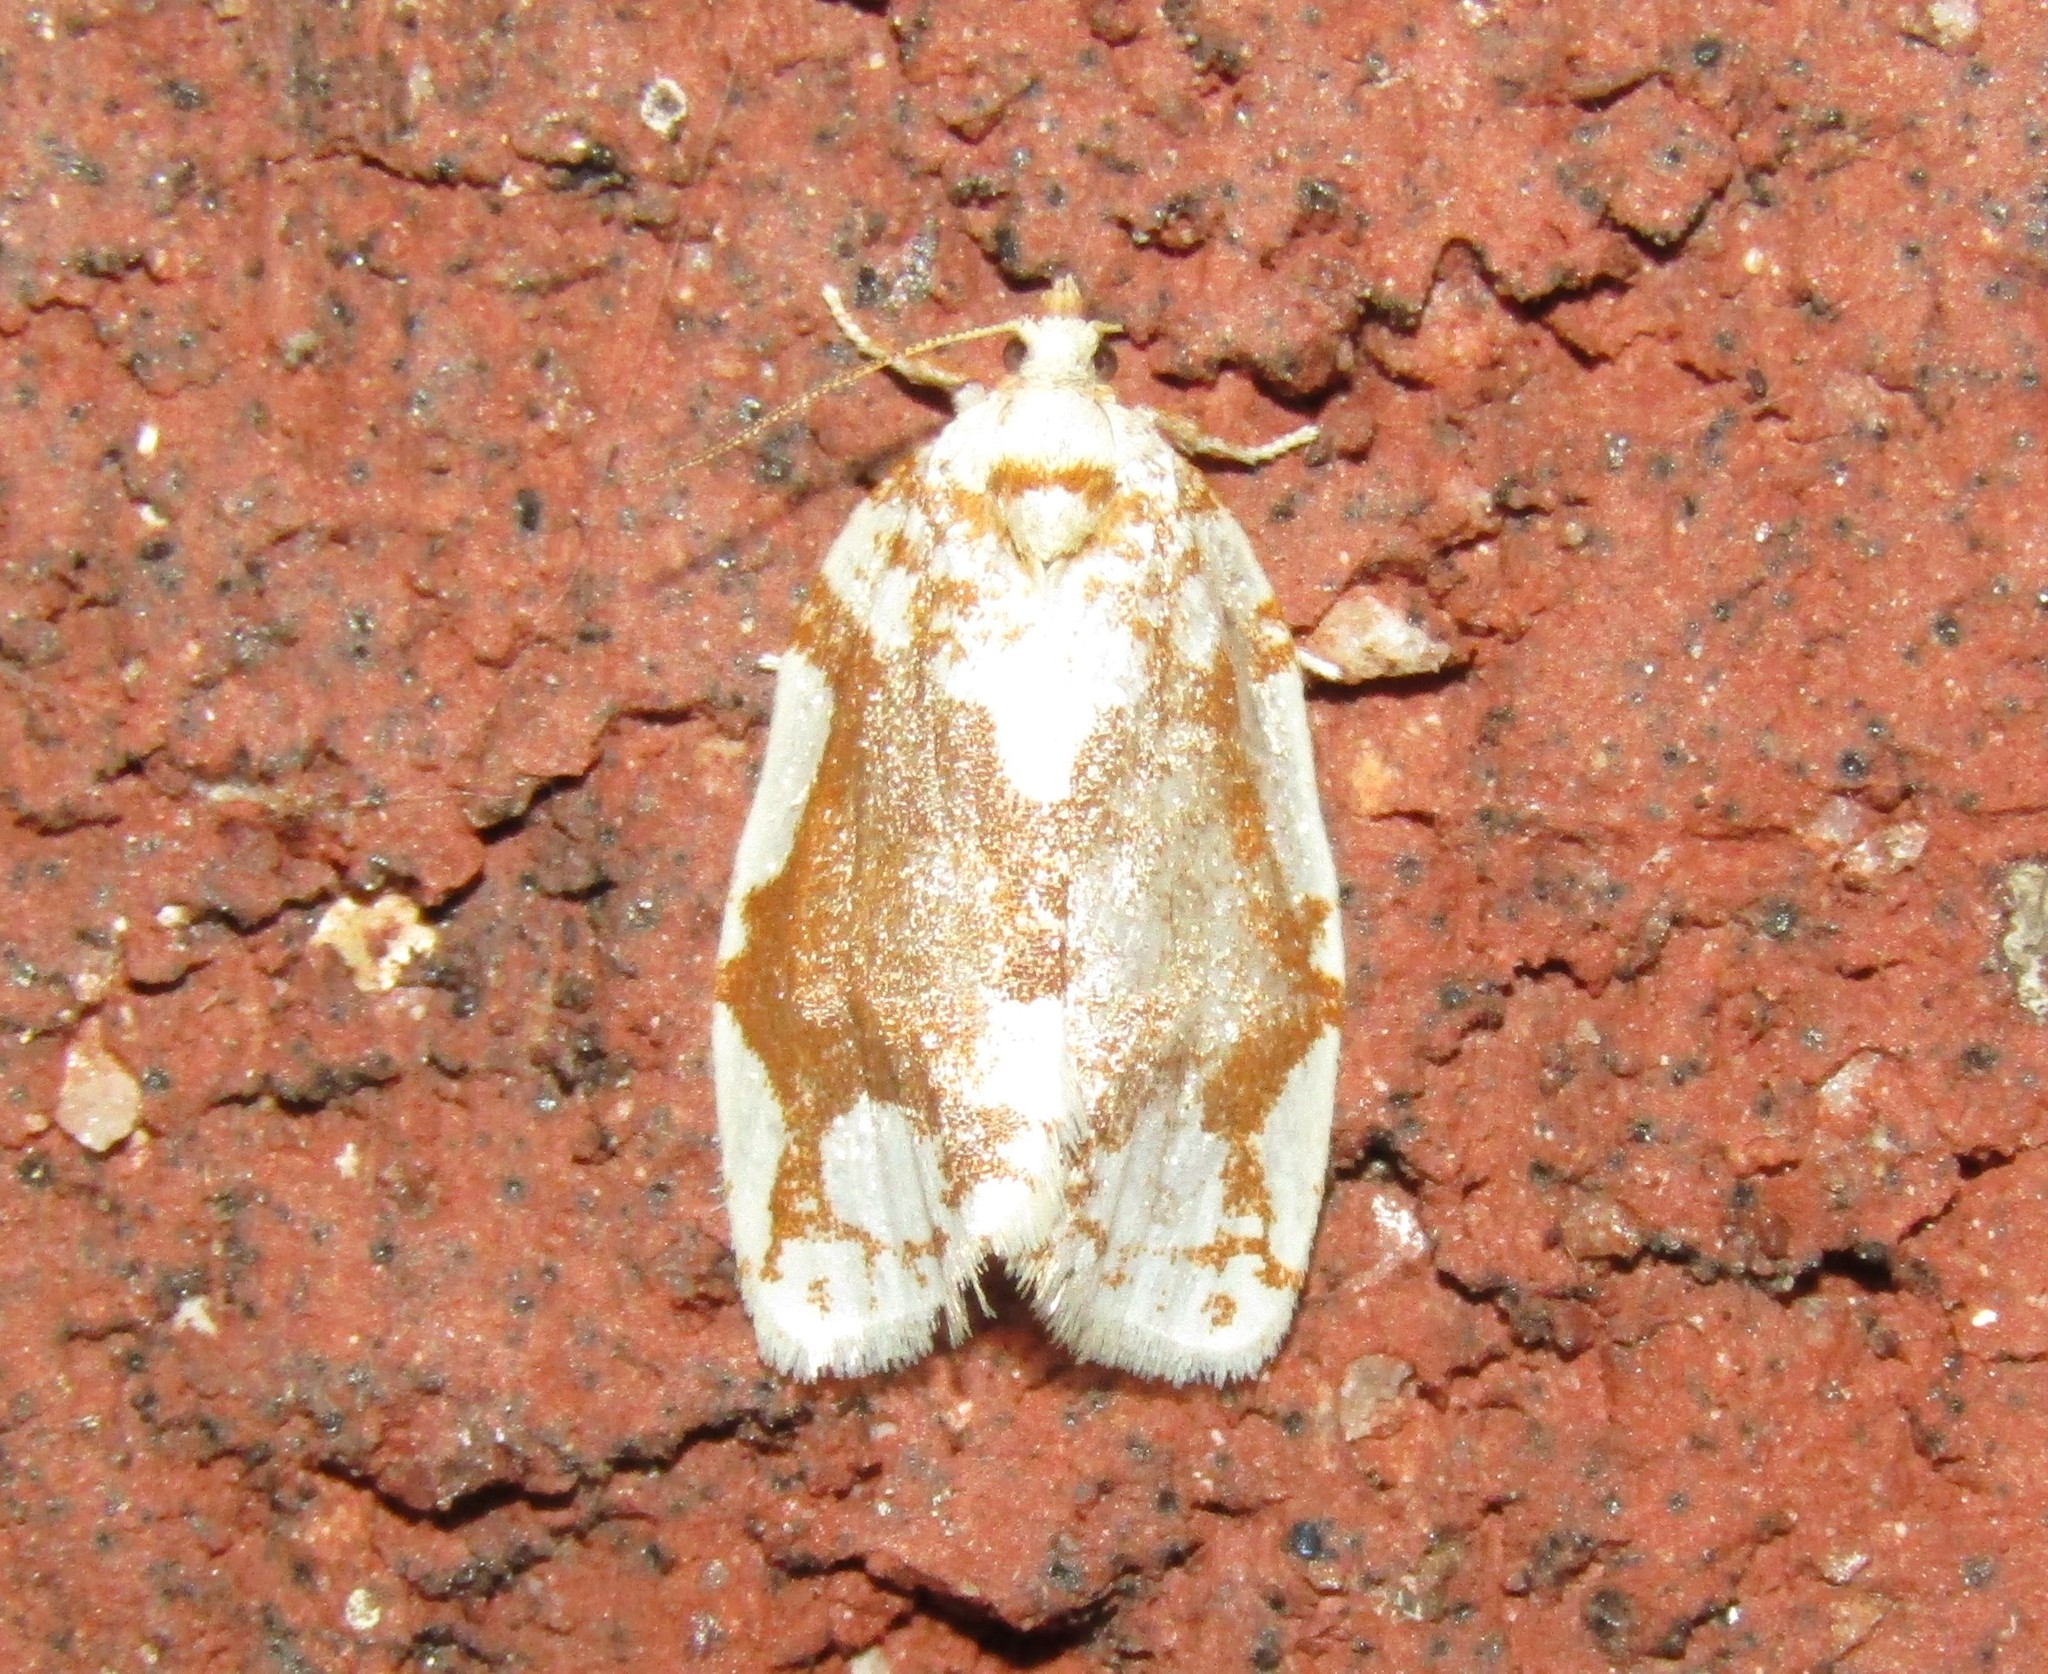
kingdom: Animalia
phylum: Arthropoda
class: Insecta
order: Lepidoptera
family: Tortricidae
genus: Argyrotaenia
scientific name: Argyrotaenia alisellana
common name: White-spotted leafroller moth
